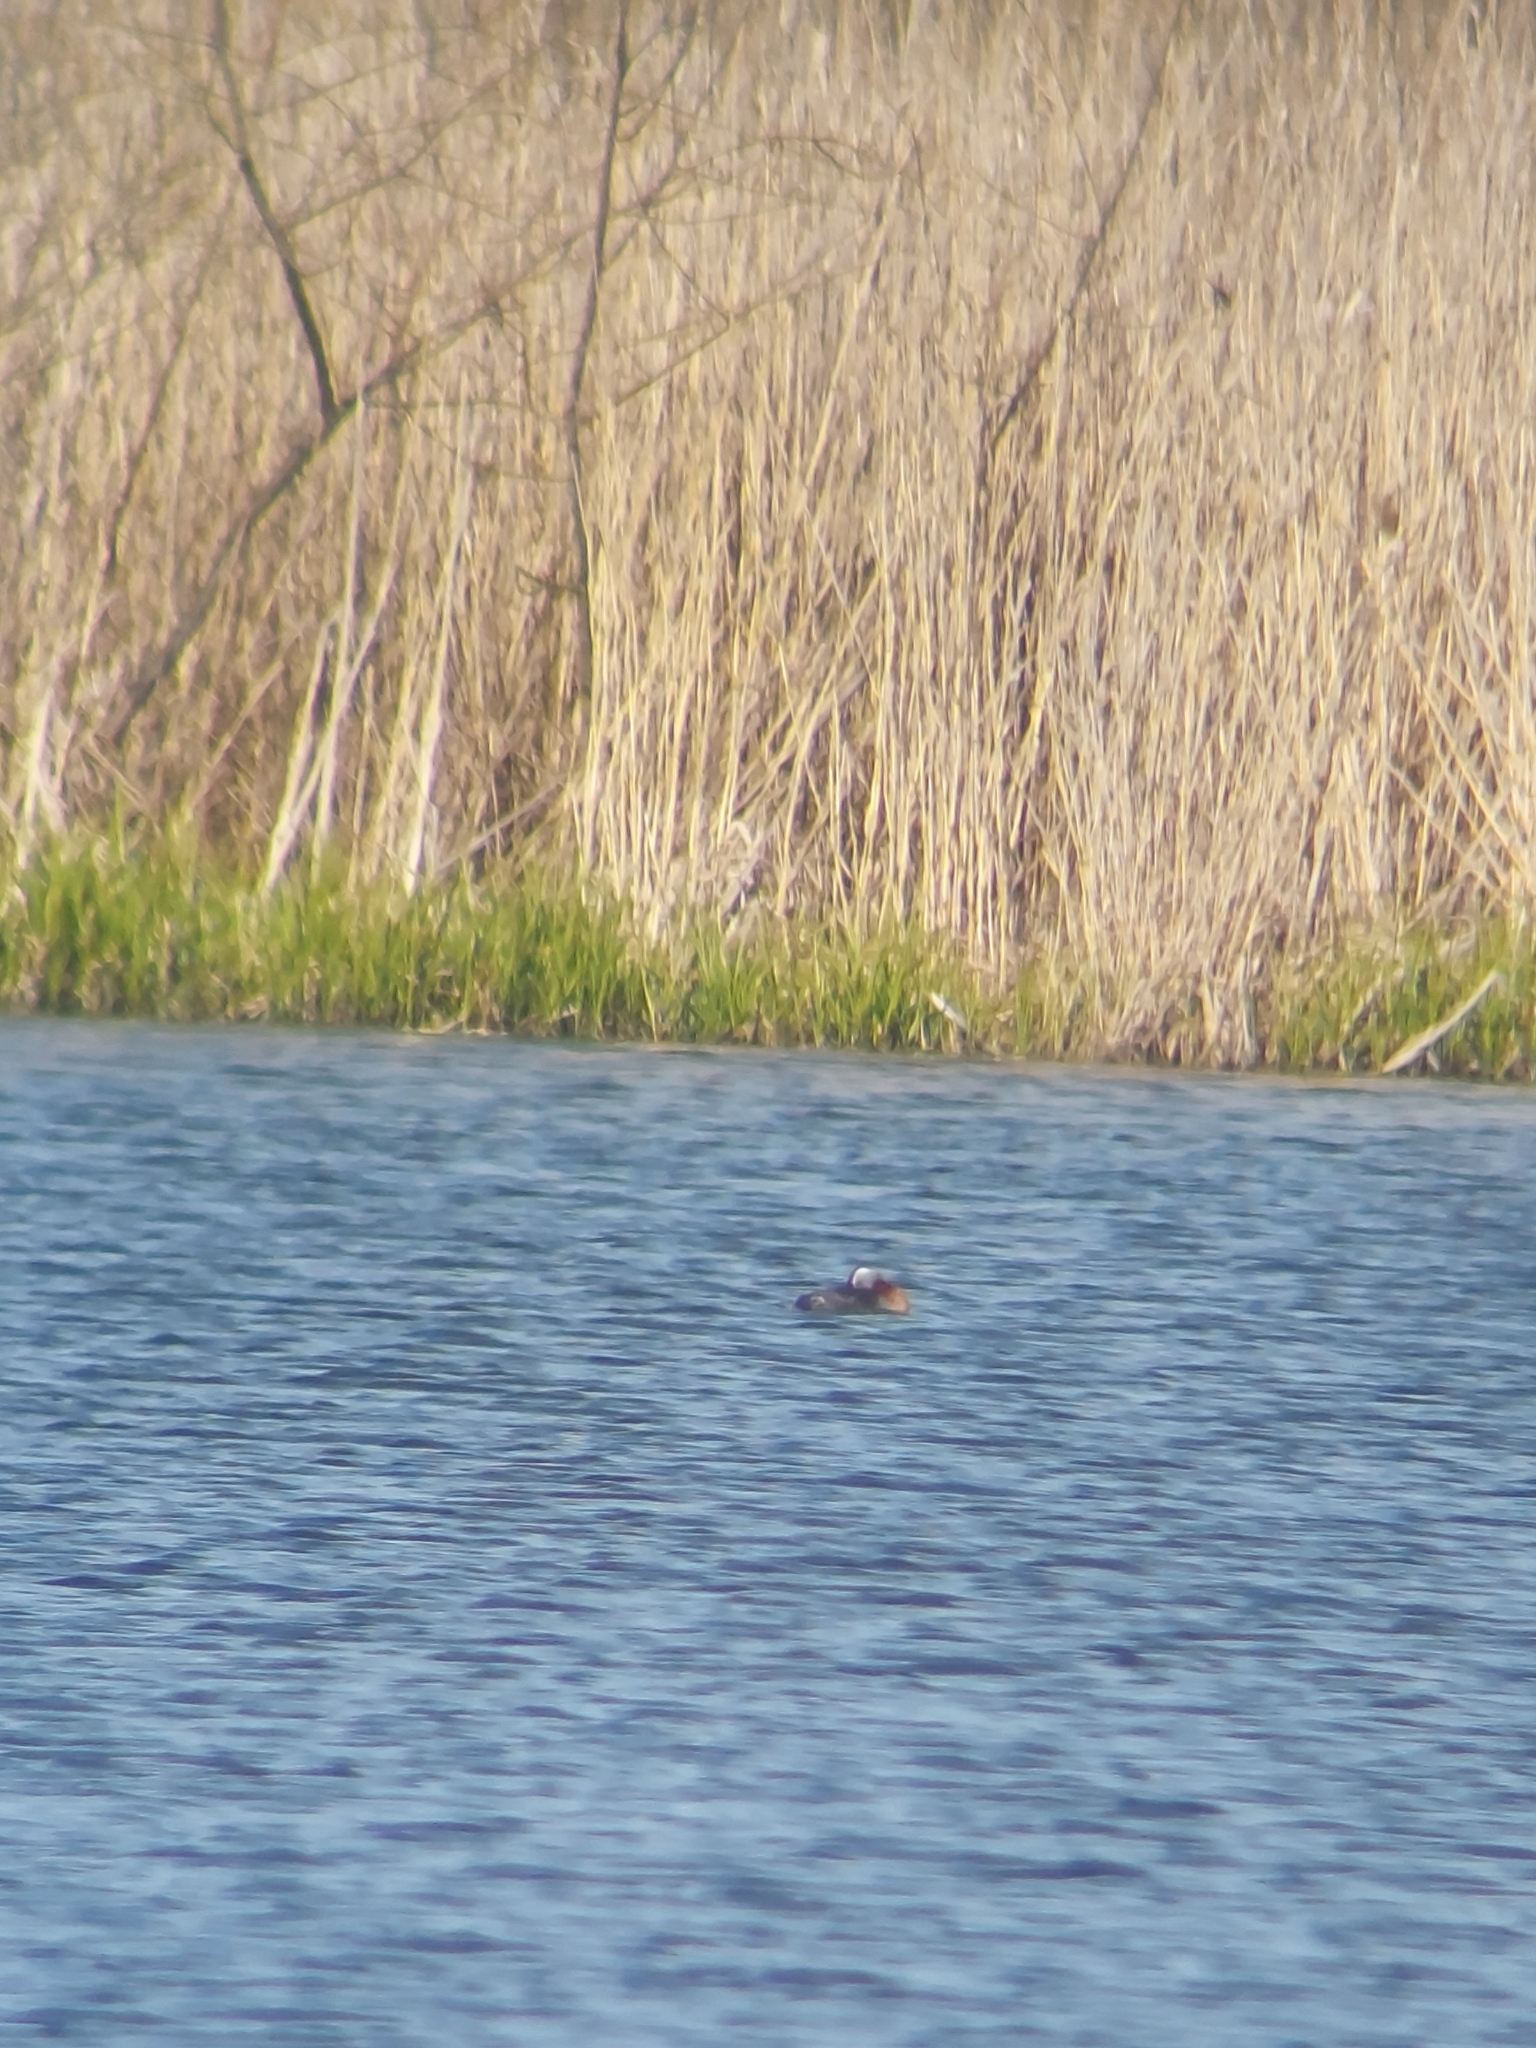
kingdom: Animalia
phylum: Chordata
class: Aves
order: Podicipediformes
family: Podicipedidae
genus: Podiceps
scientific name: Podiceps grisegena
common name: Red-necked grebe
